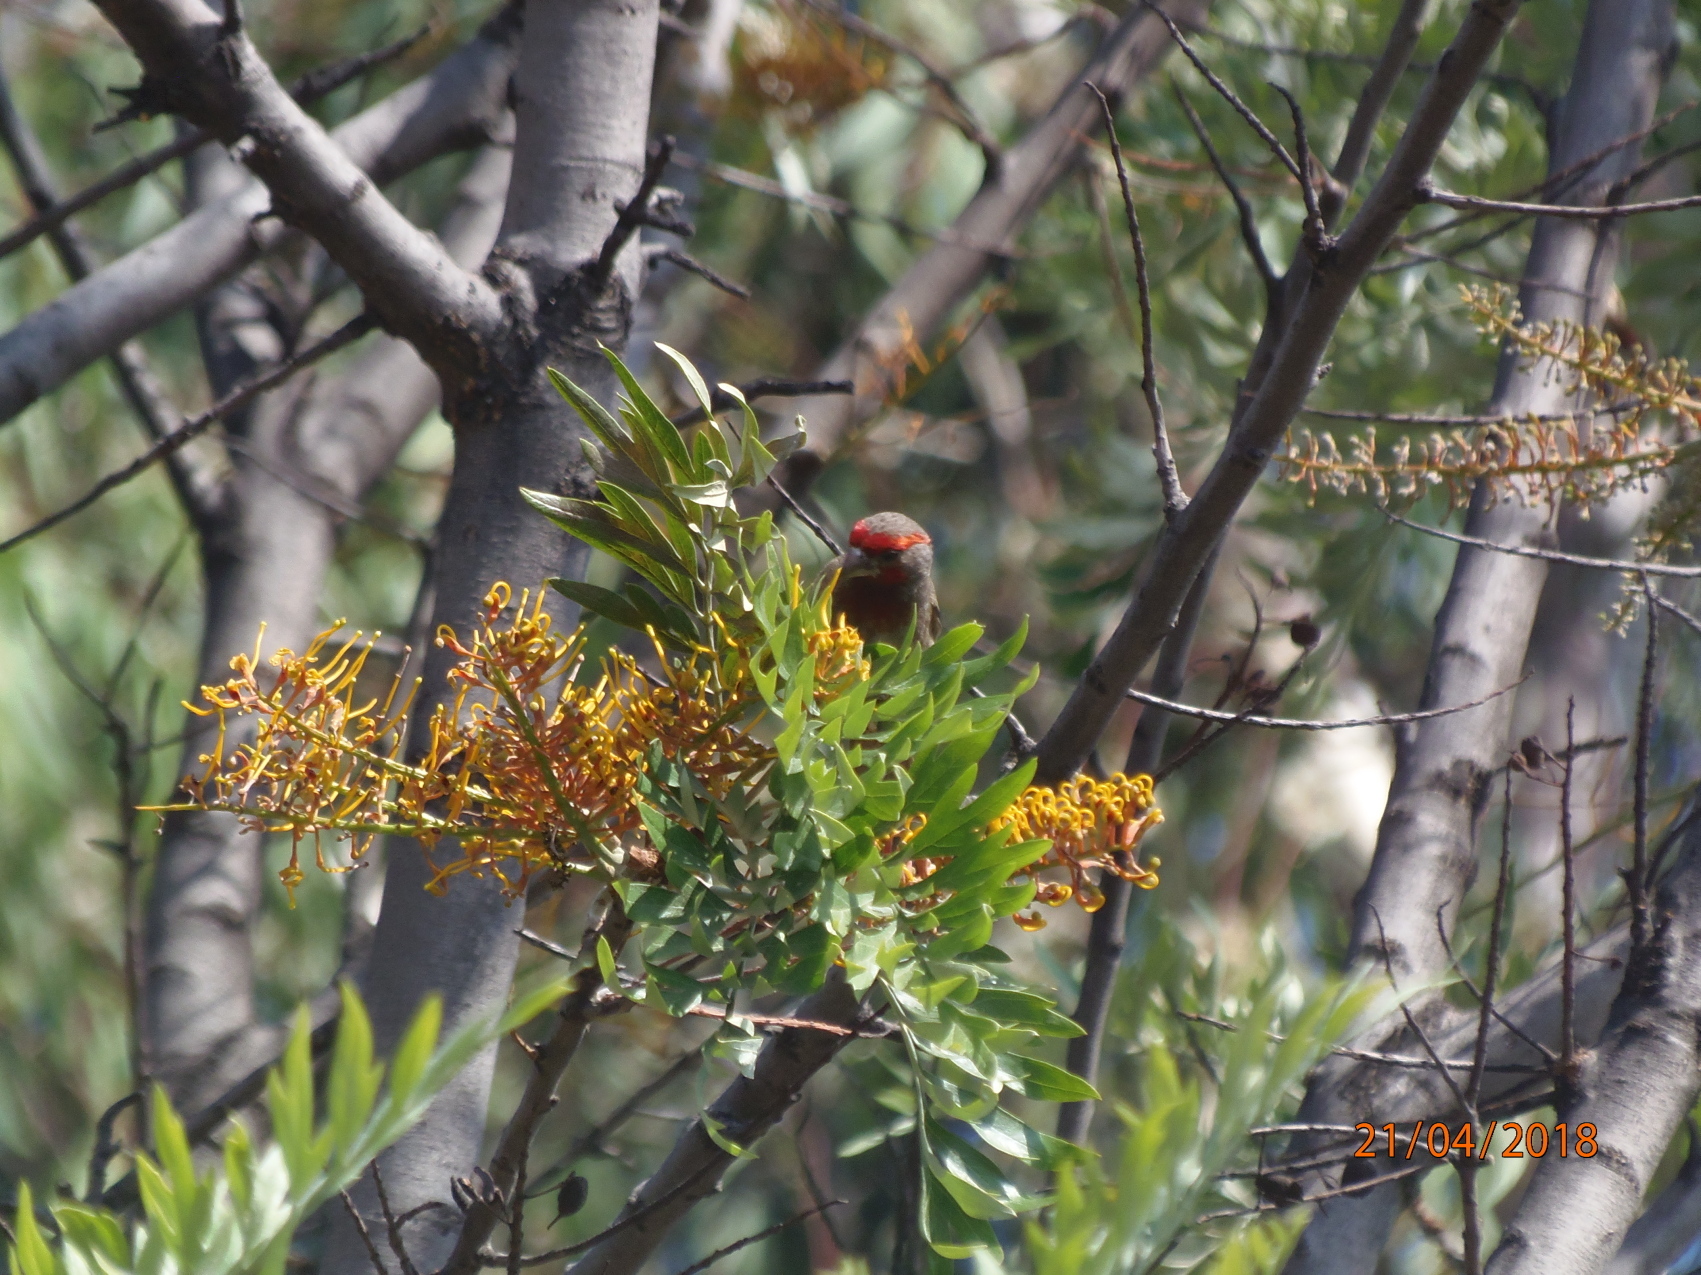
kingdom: Animalia
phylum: Chordata
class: Aves
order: Passeriformes
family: Fringillidae
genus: Haemorhous
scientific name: Haemorhous mexicanus
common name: House finch
